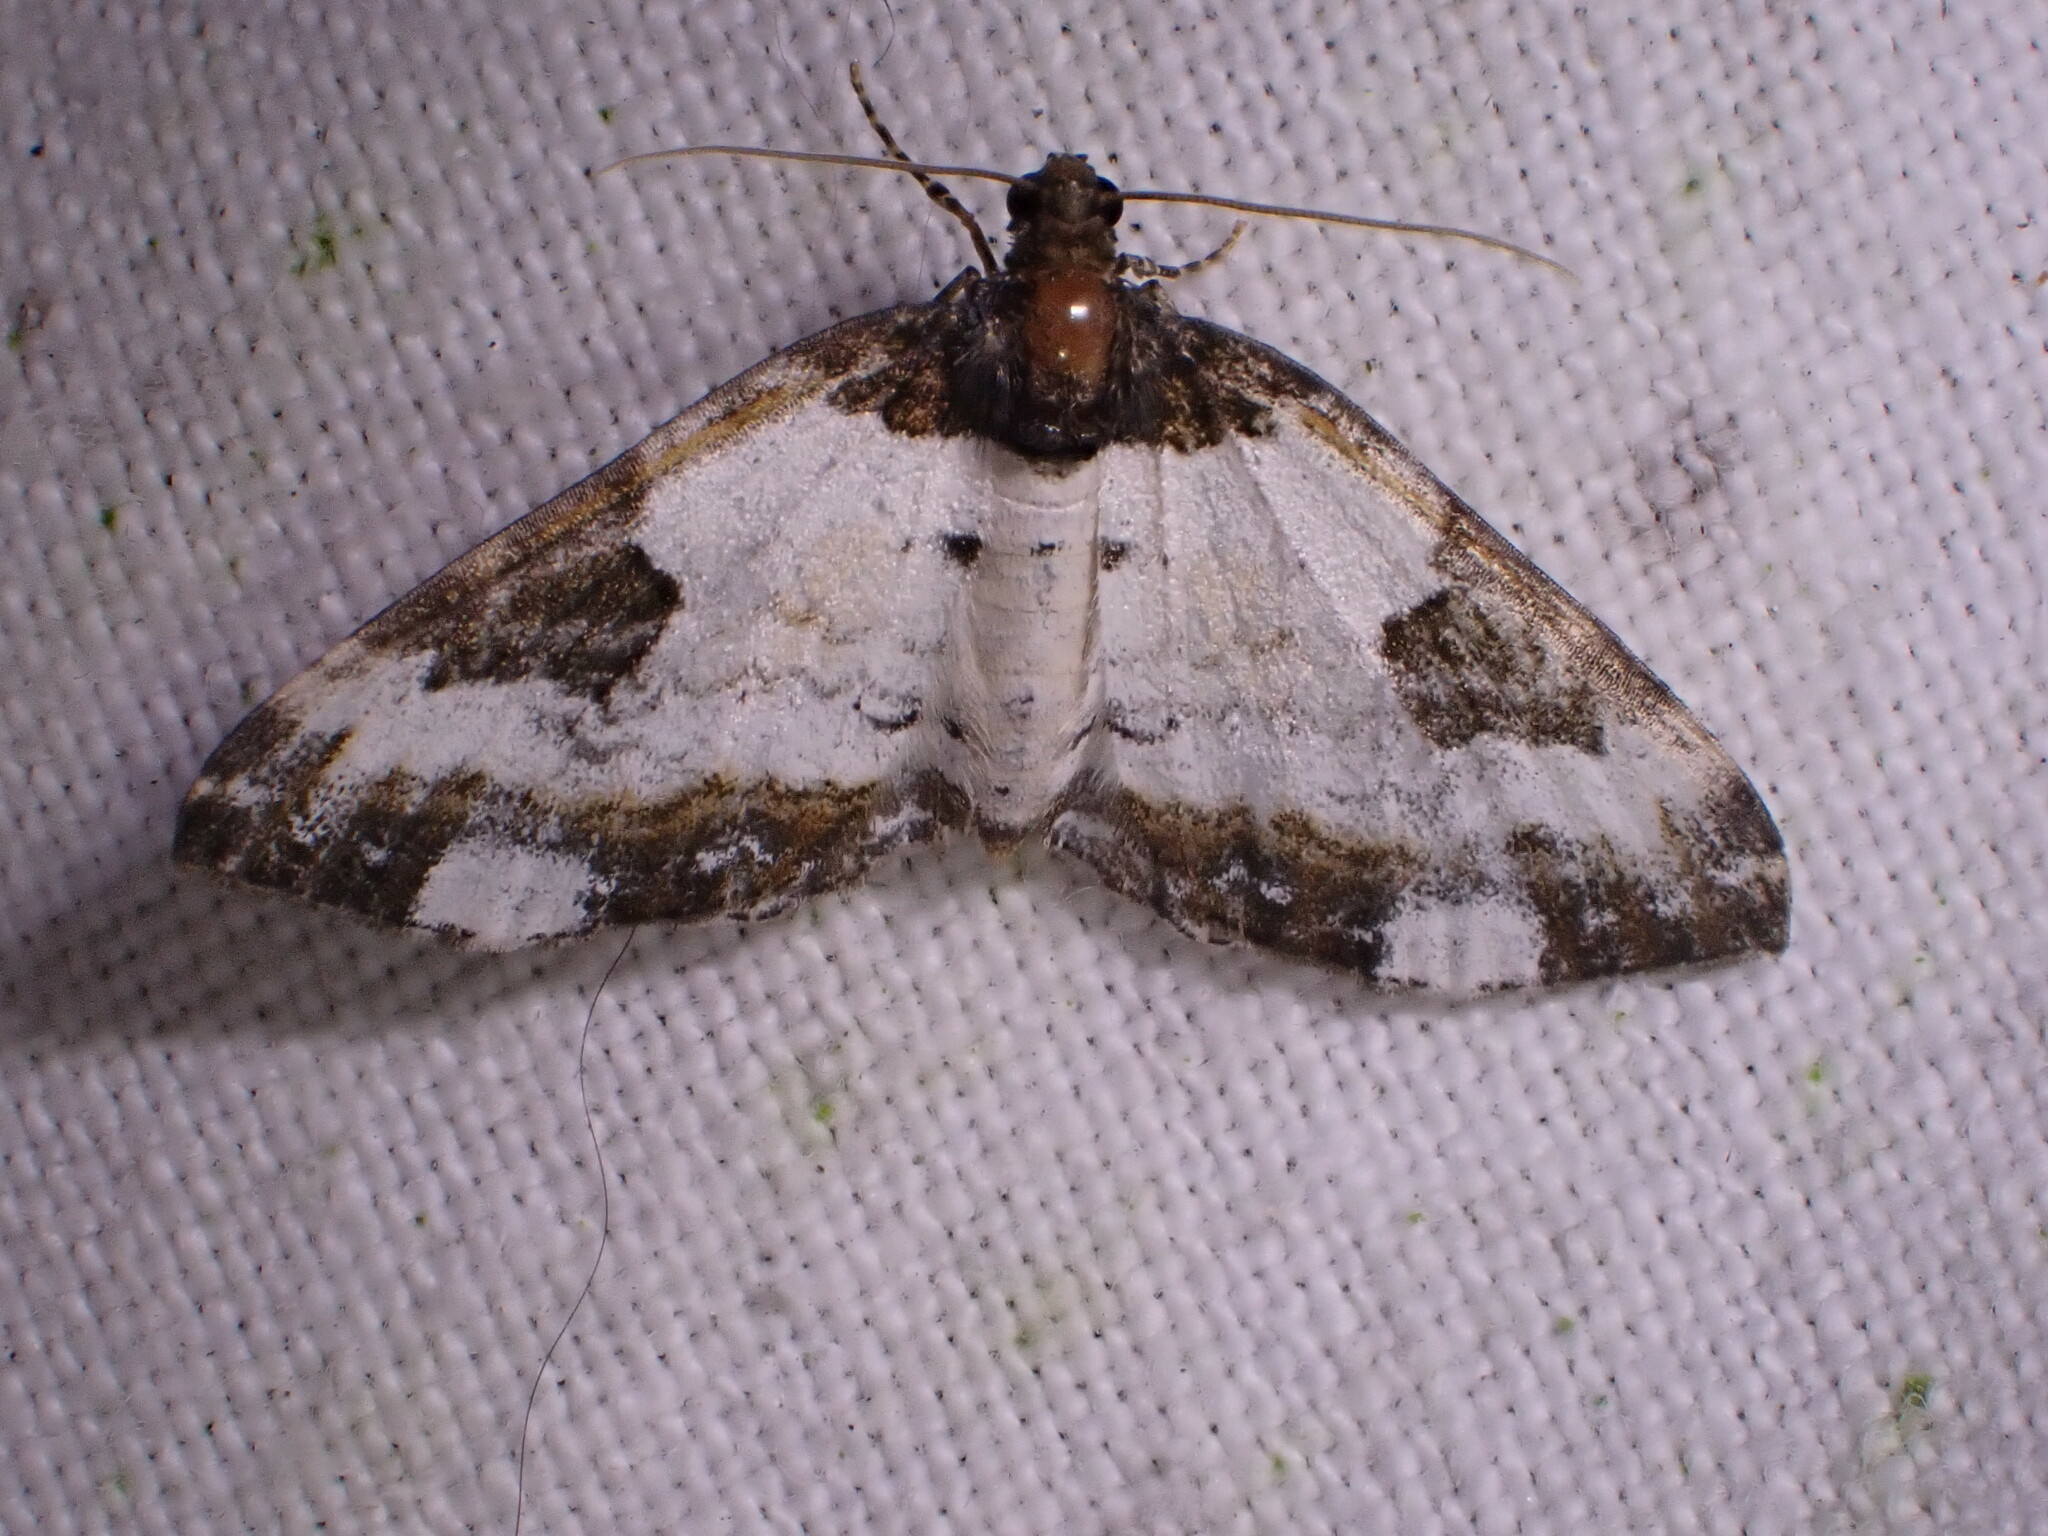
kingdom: Animalia
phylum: Arthropoda
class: Insecta
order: Lepidoptera
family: Geometridae
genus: Melanthia
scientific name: Melanthia procellata
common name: Pretty chalk carpet
